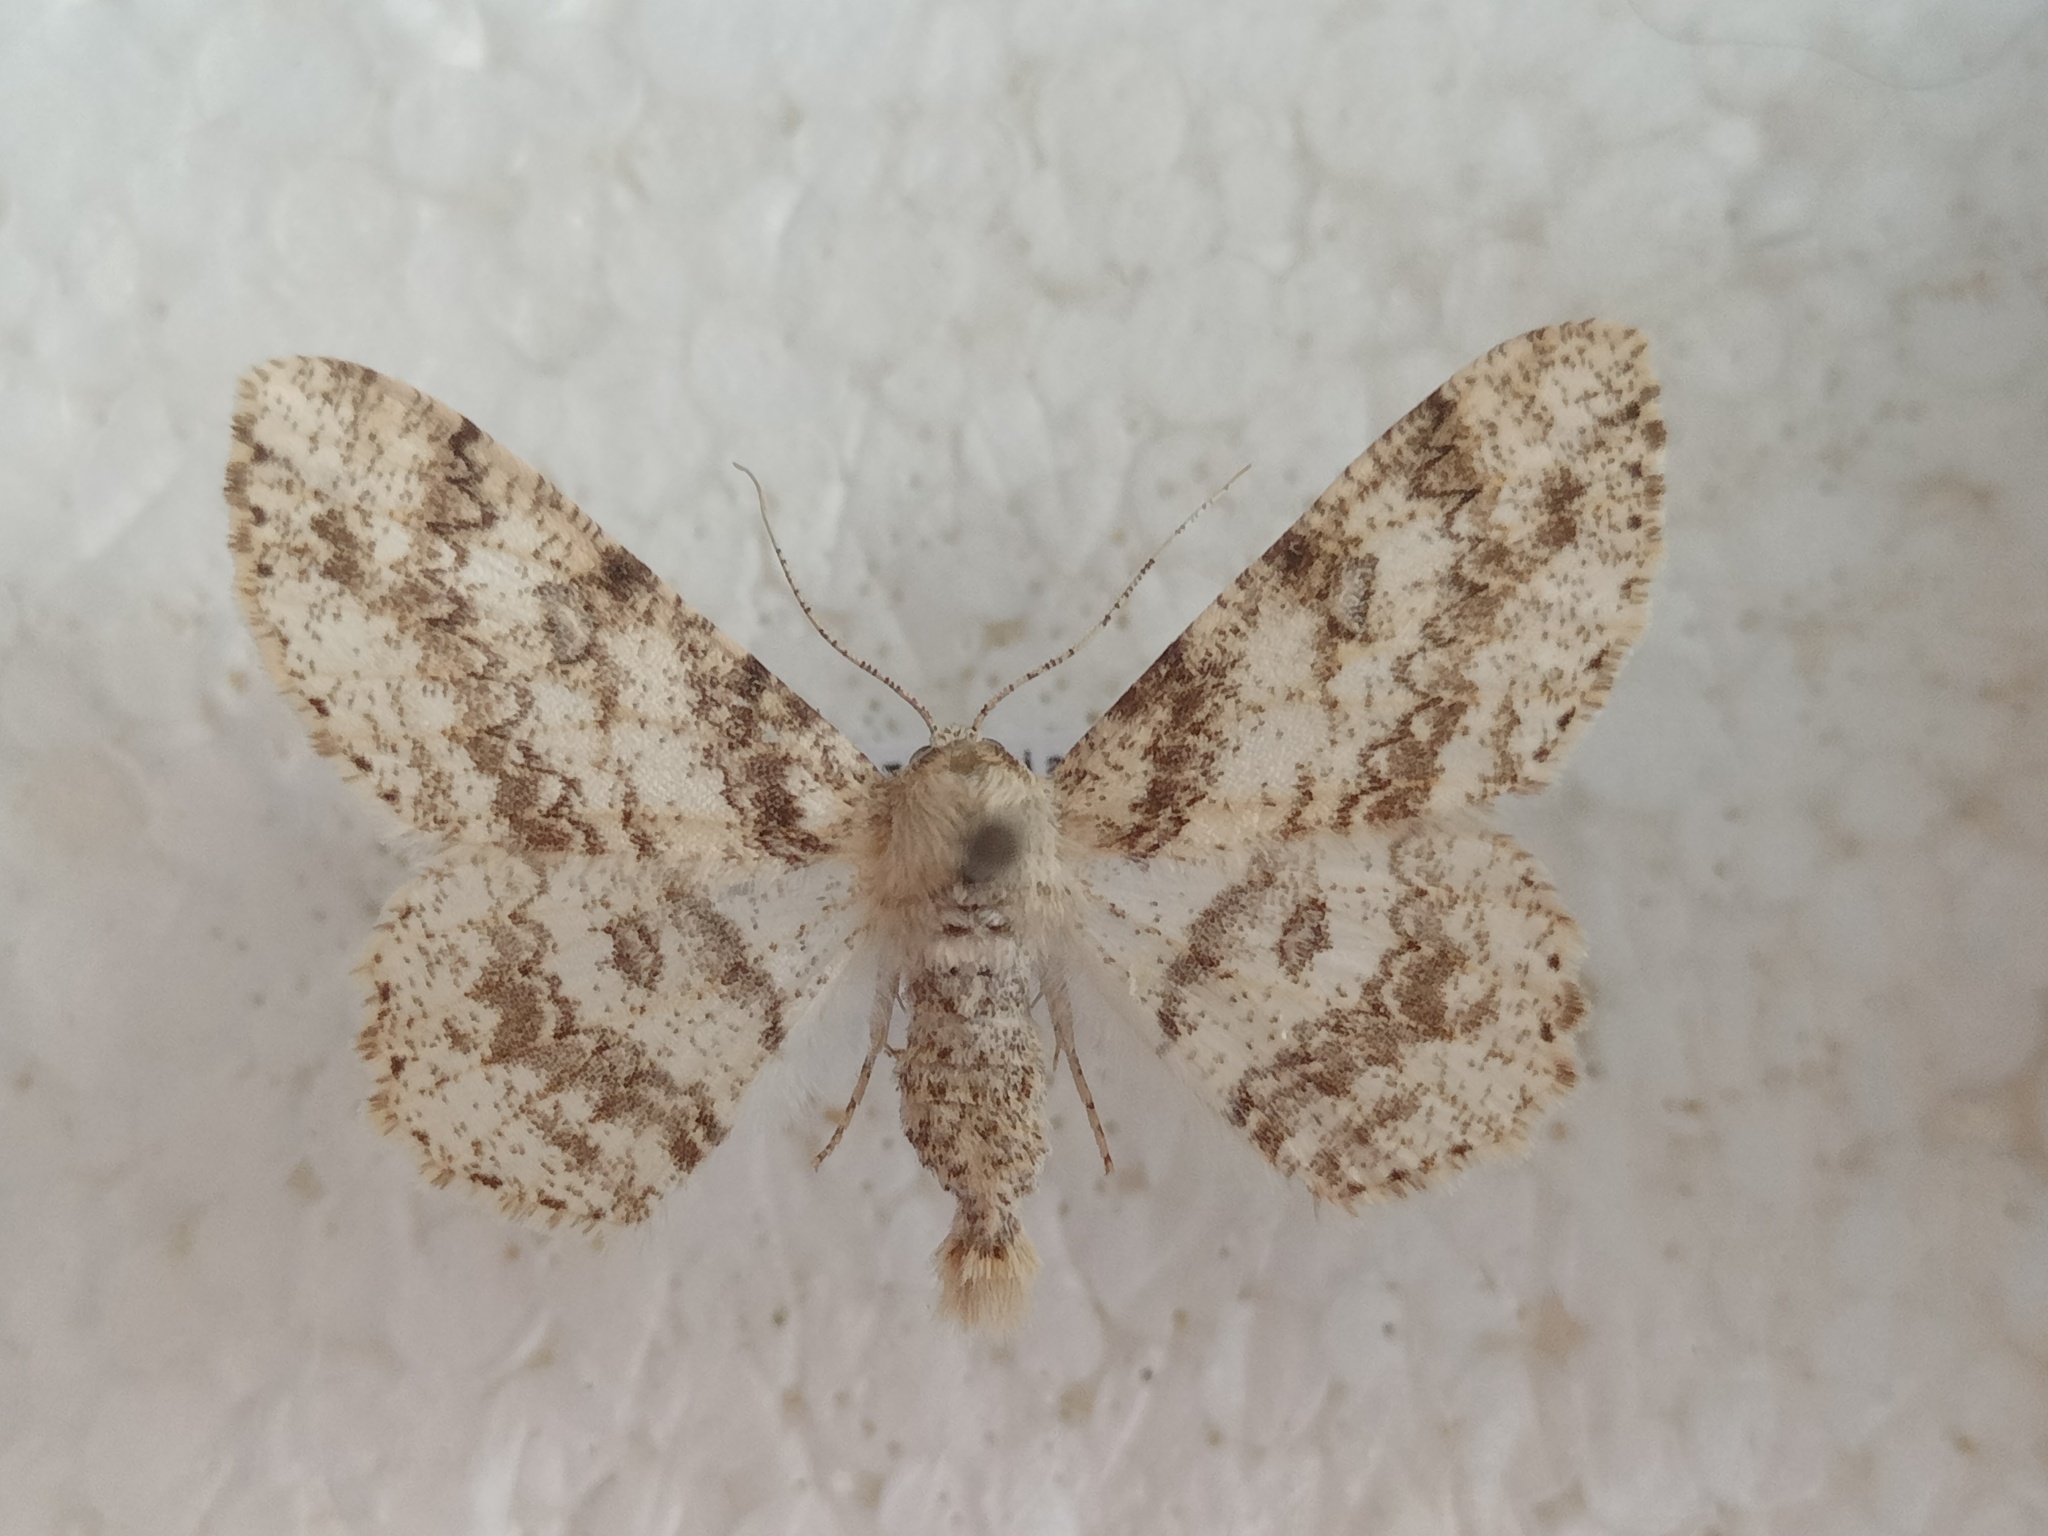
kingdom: Animalia
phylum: Arthropoda
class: Insecta
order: Lepidoptera
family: Geometridae
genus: Ascotis
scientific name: Ascotis selenaria
